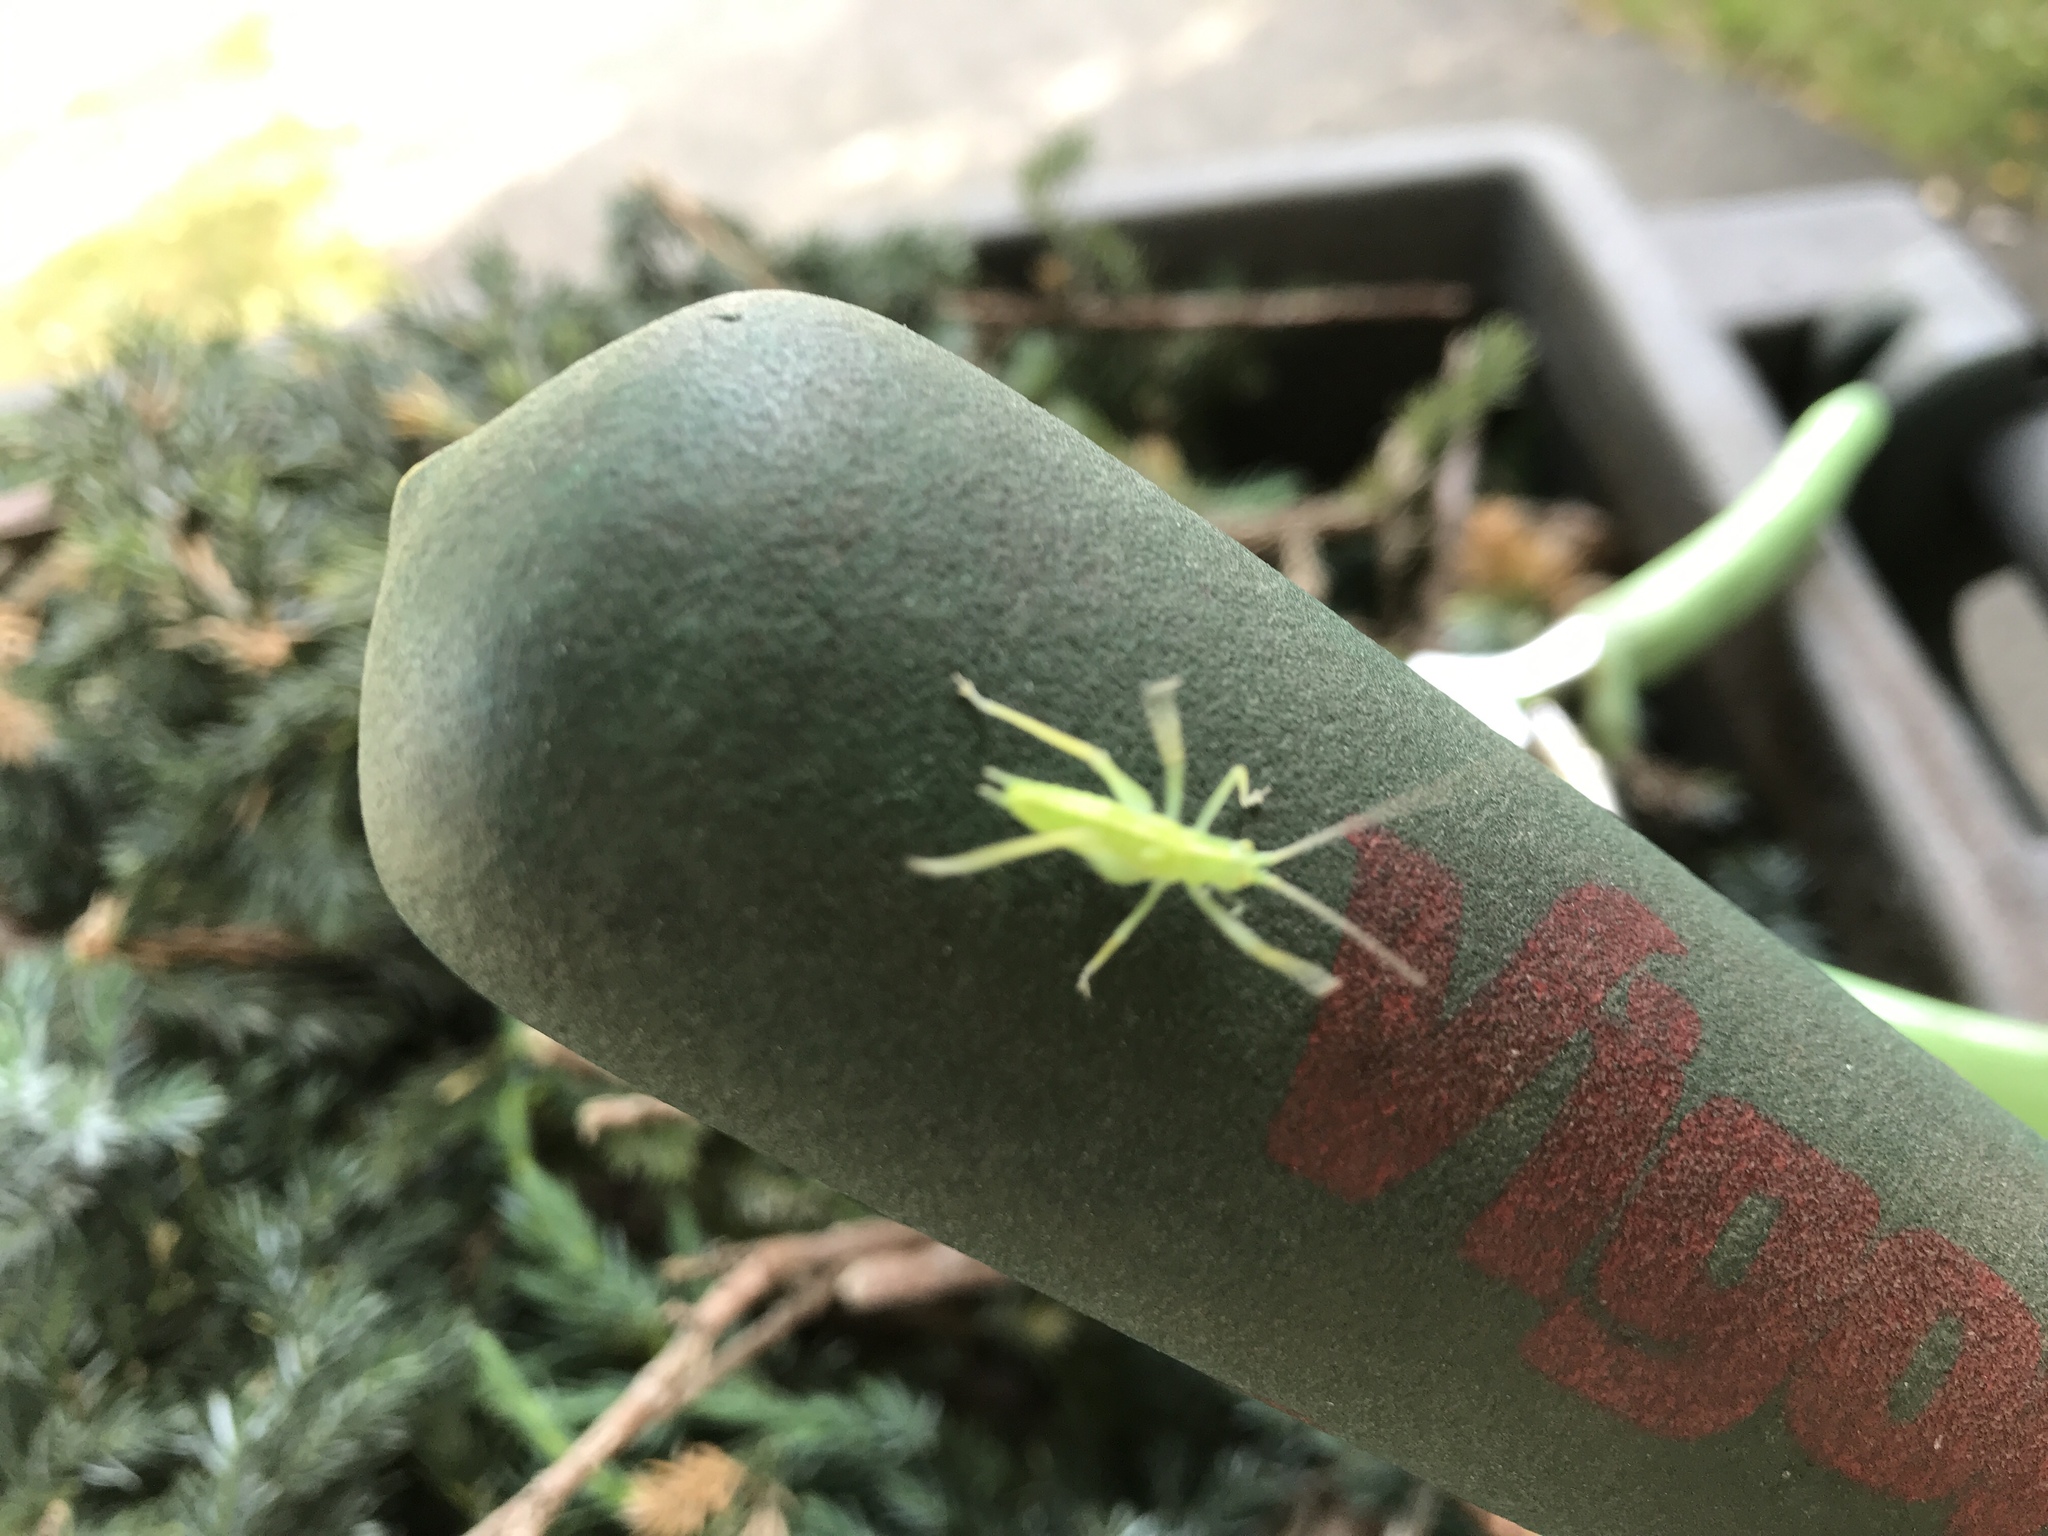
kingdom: Animalia
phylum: Arthropoda
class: Insecta
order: Orthoptera
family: Tettigoniidae
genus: Meconema
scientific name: Meconema thalassinum
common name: Oak bush-cricket
